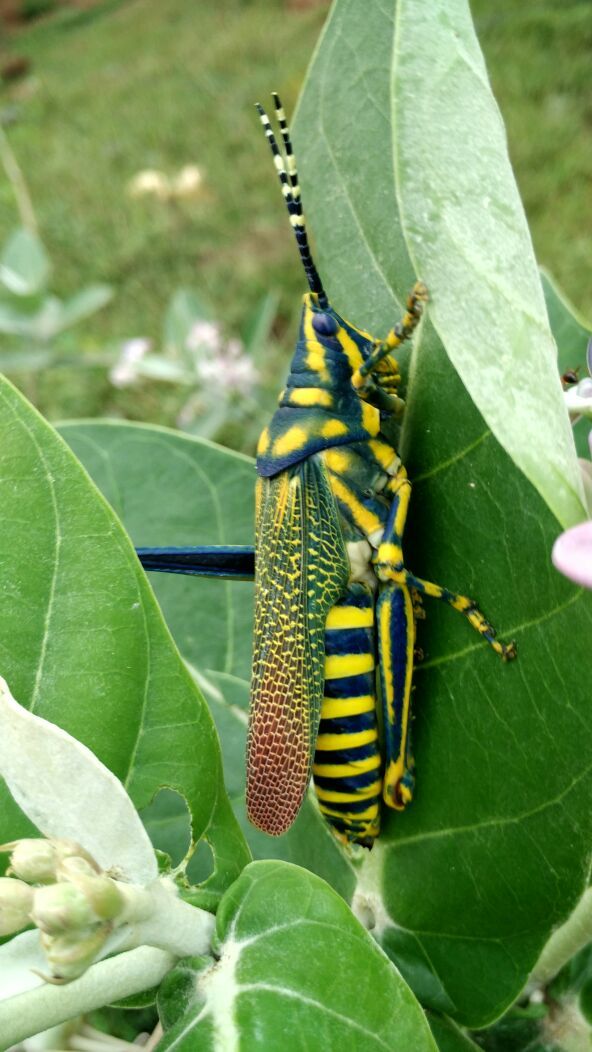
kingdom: Animalia
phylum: Arthropoda
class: Insecta
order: Orthoptera
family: Pyrgomorphidae
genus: Poekilocerus
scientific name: Poekilocerus pictus
